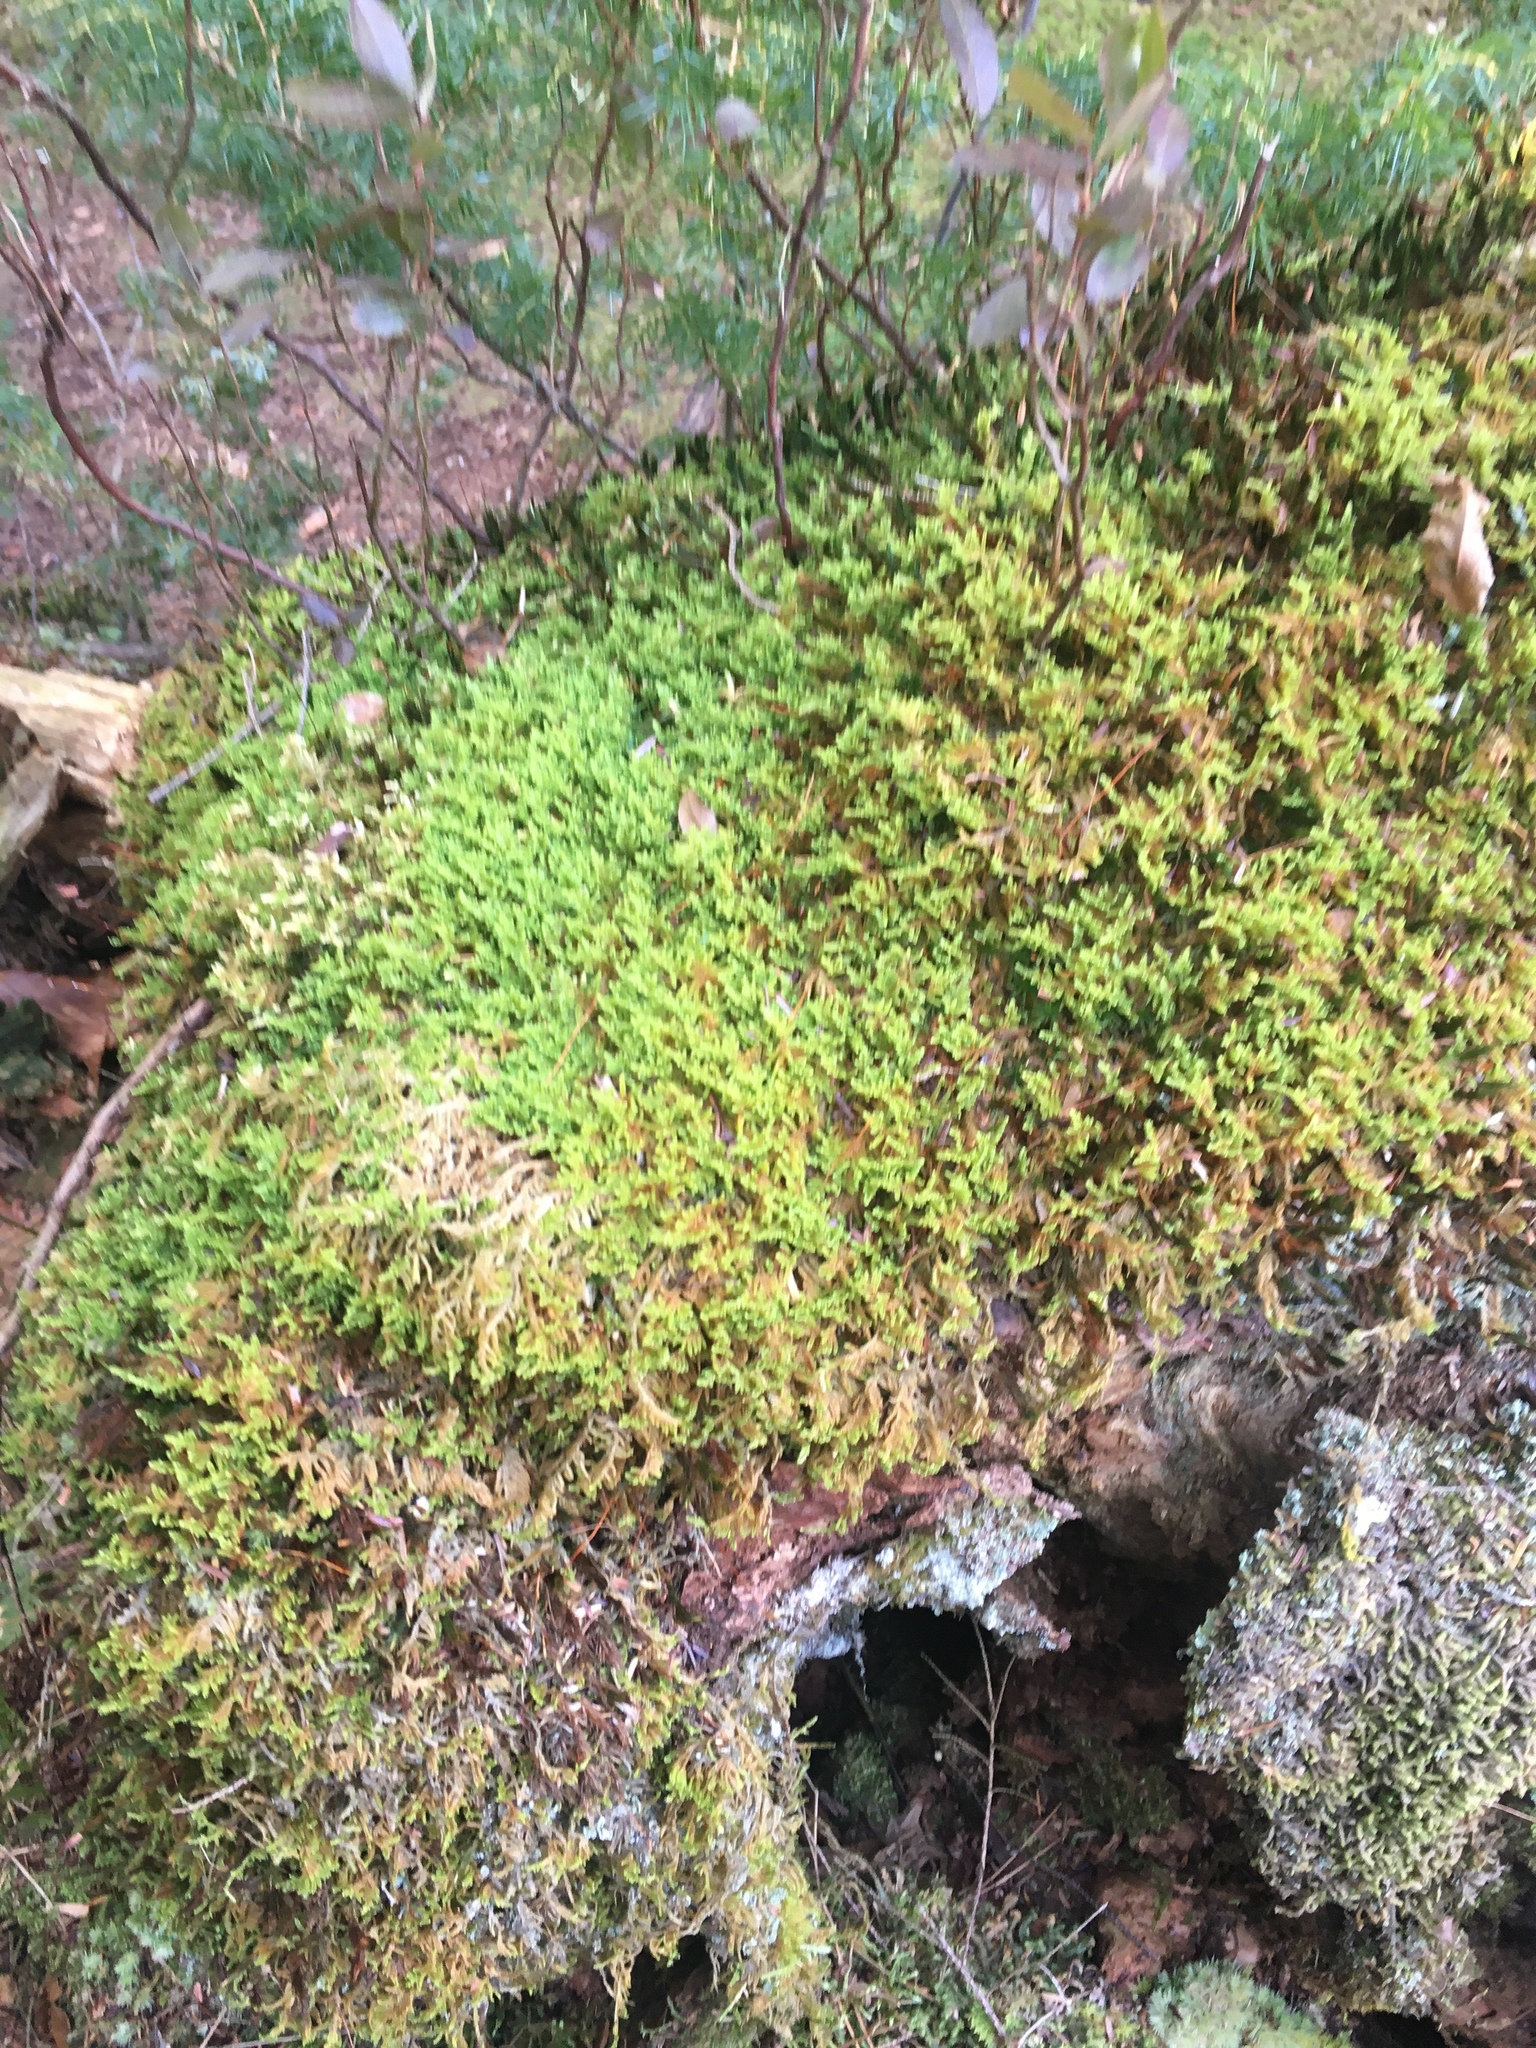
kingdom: Plantae
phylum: Bryophyta
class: Bryopsida
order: Hypnales
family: Callicladiaceae
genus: Callicladium
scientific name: Callicladium imponens
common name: Brocade moss
